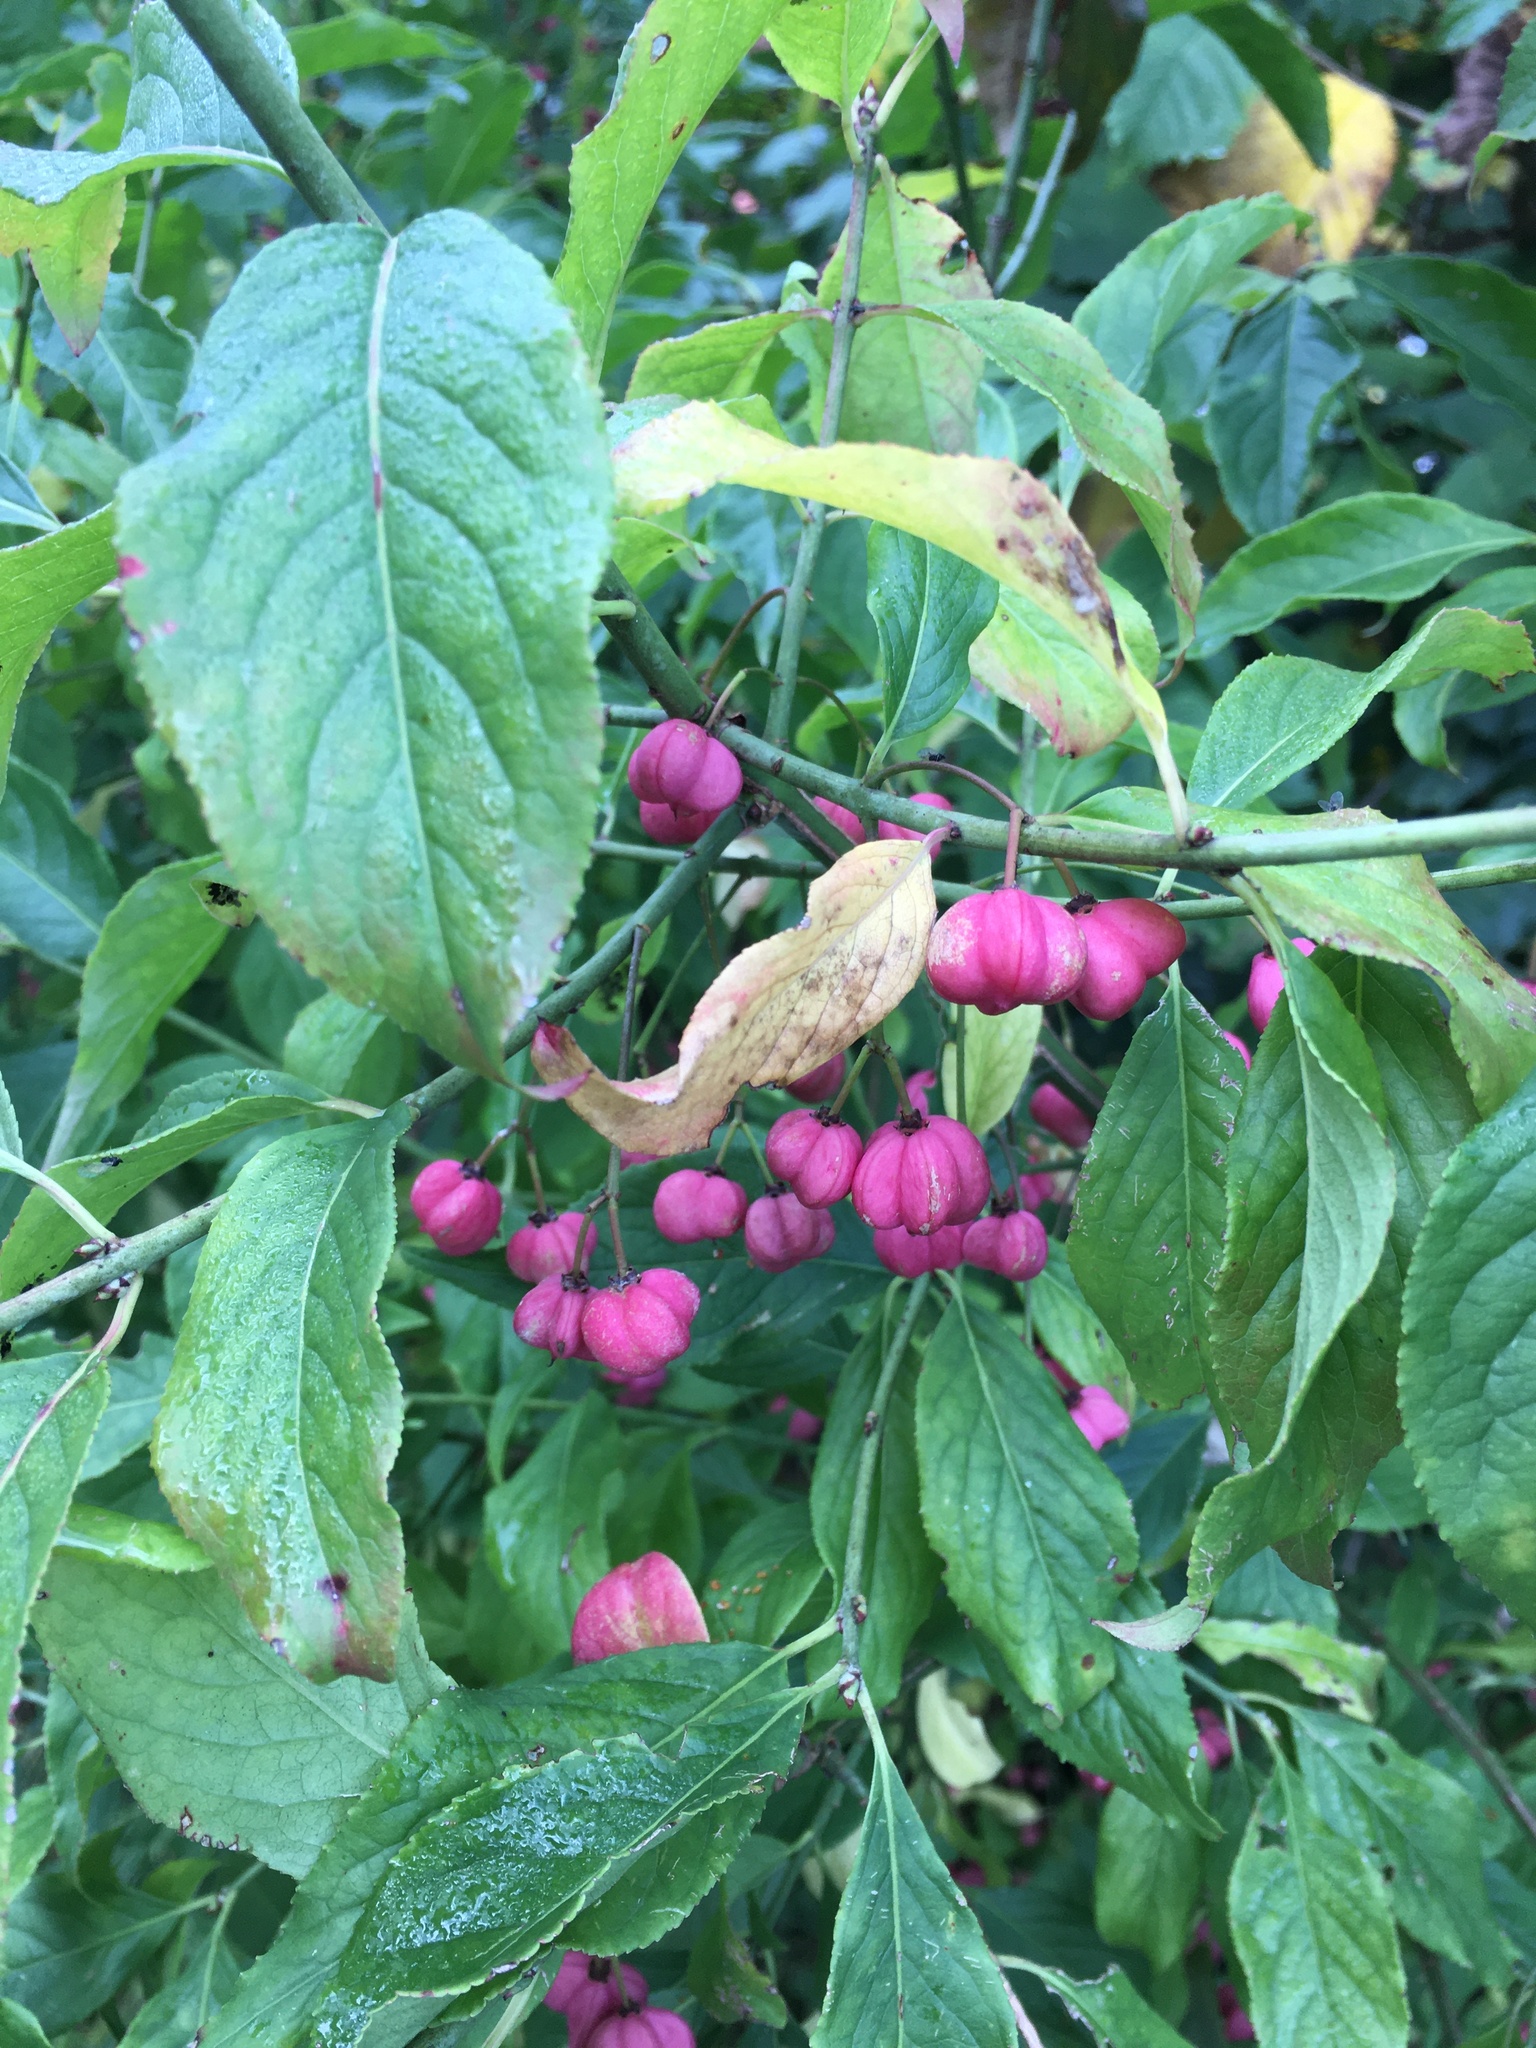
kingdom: Plantae
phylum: Tracheophyta
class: Magnoliopsida
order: Celastrales
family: Celastraceae
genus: Euonymus
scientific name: Euonymus europaeus
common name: Spindle
